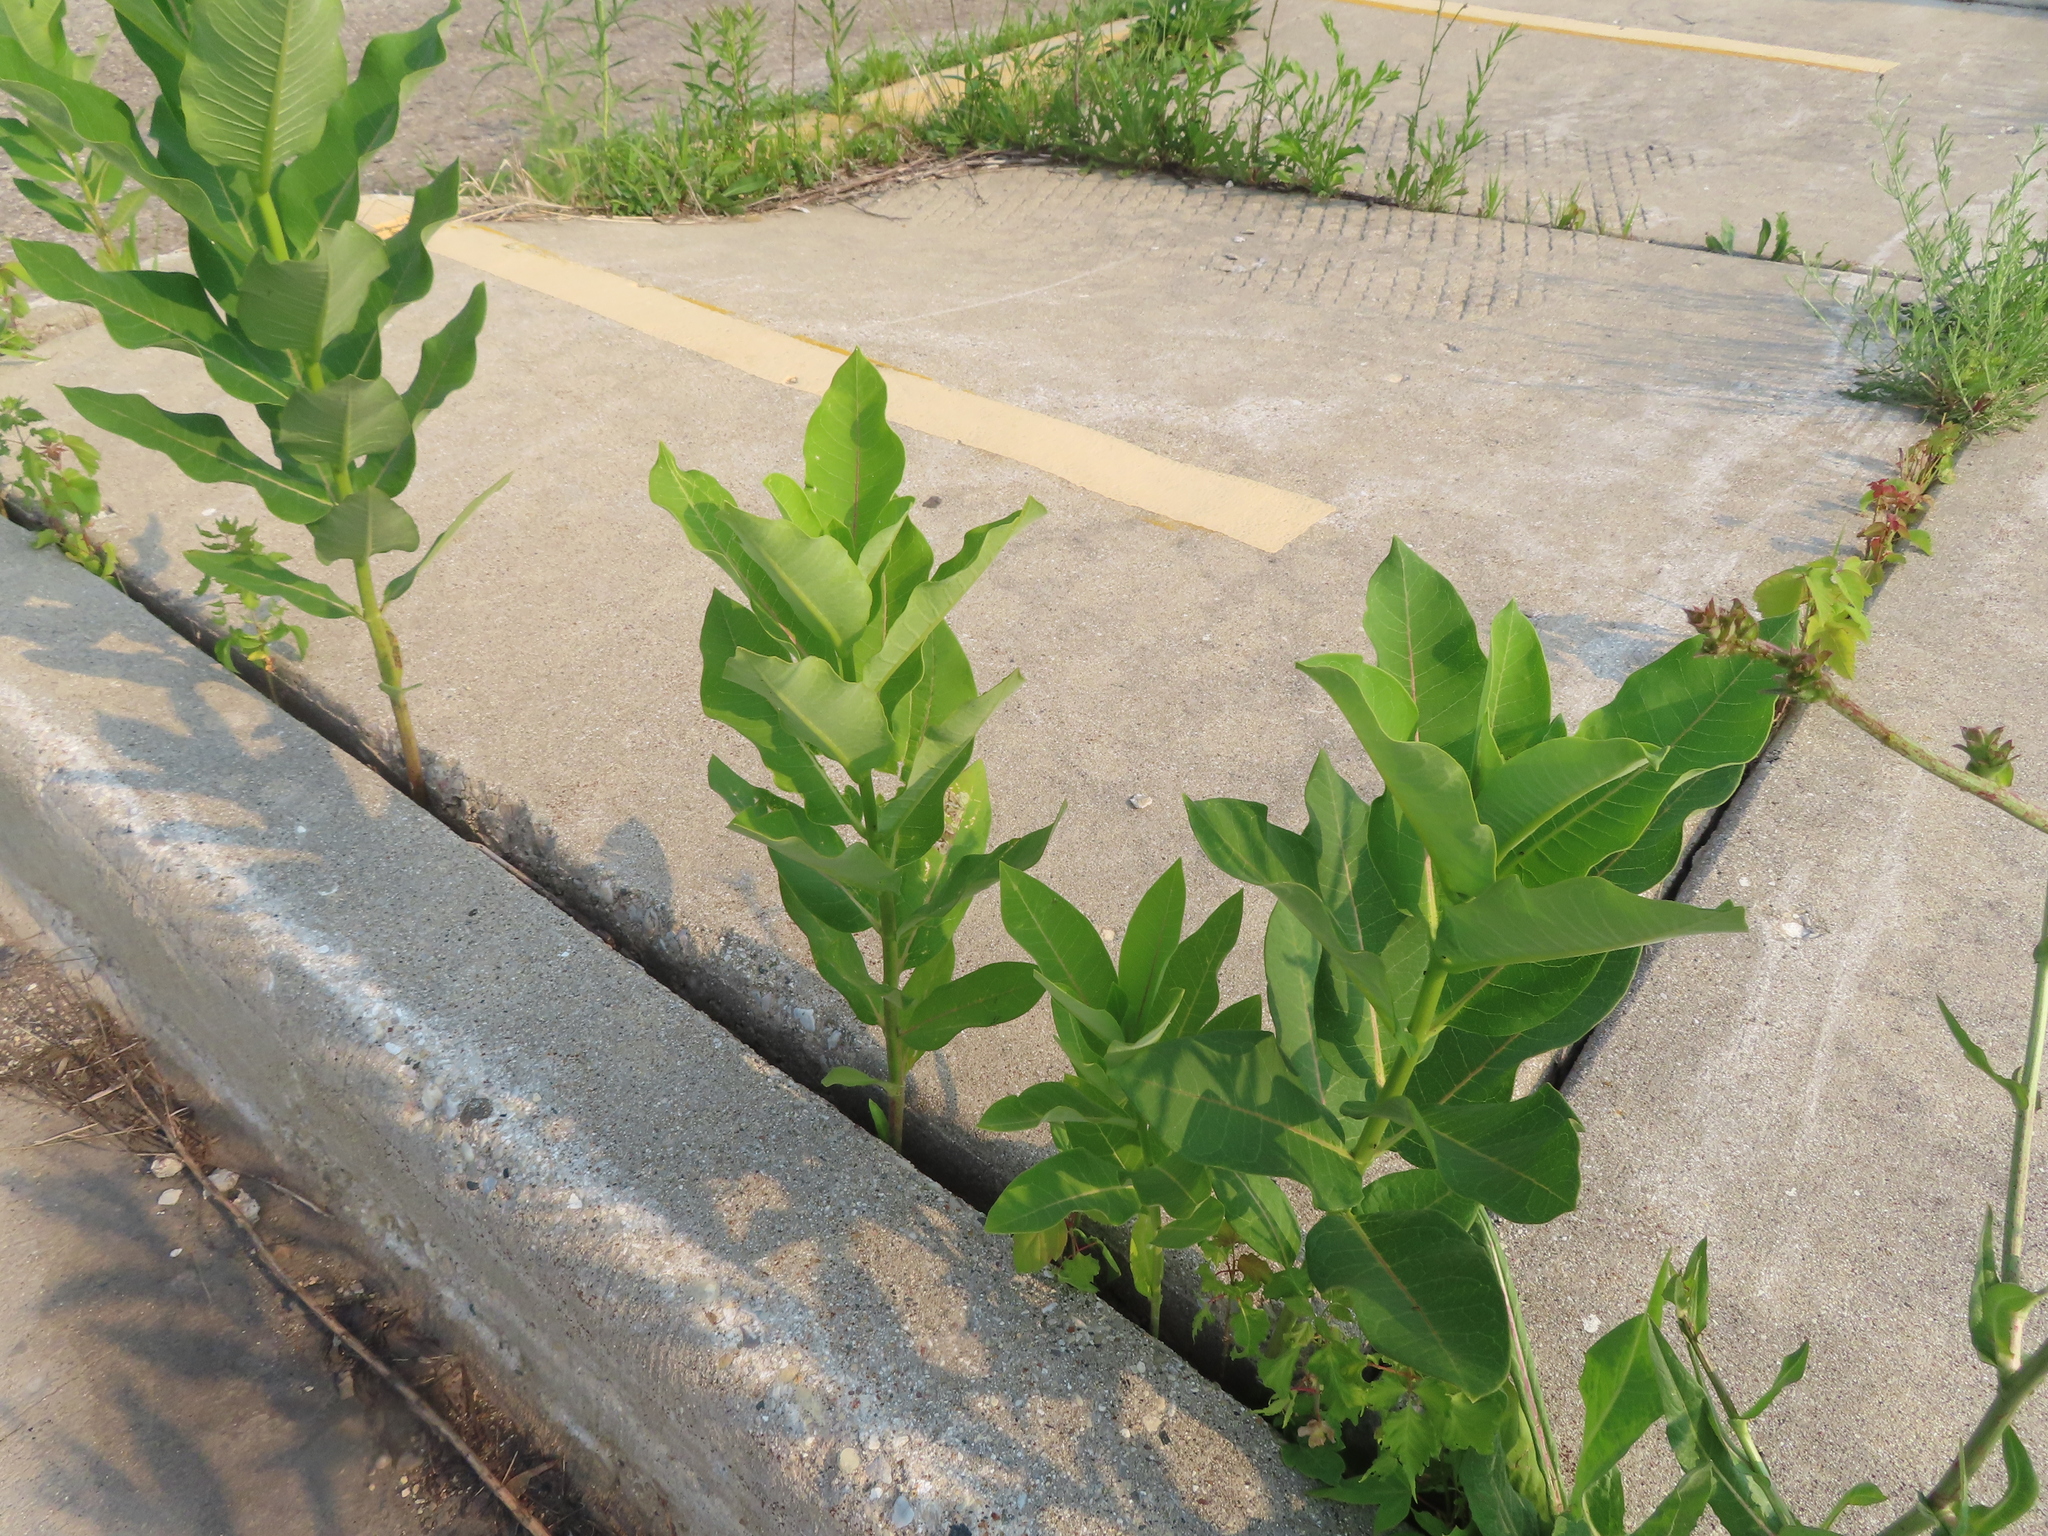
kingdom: Plantae
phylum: Tracheophyta
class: Magnoliopsida
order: Gentianales
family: Apocynaceae
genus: Asclepias
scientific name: Asclepias syriaca
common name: Common milkweed
